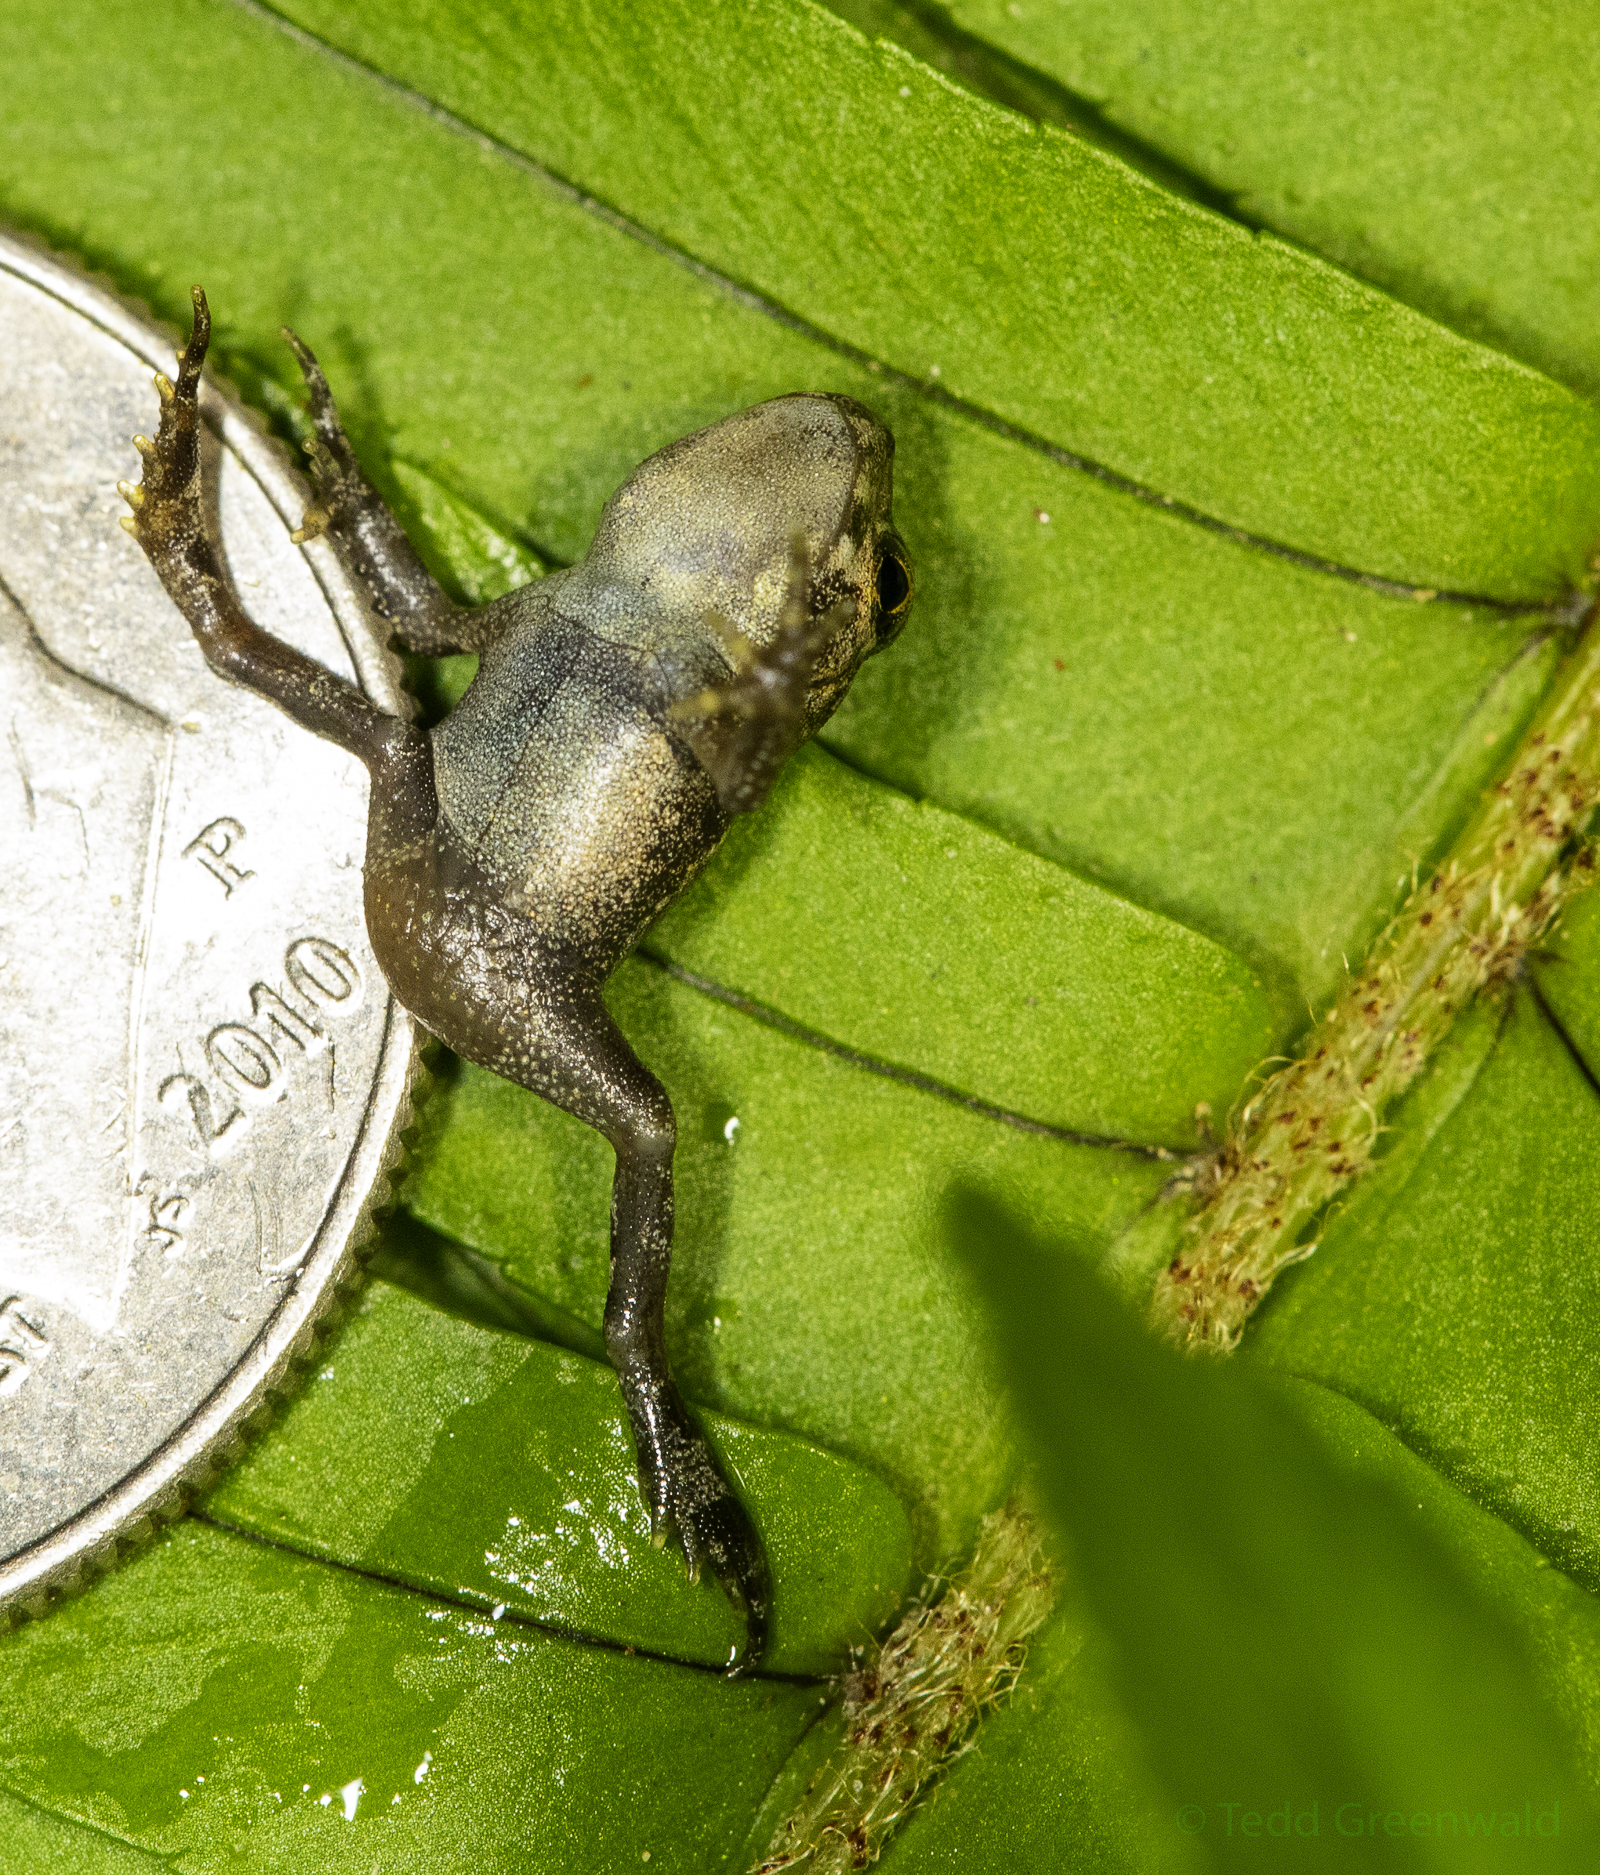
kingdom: Animalia
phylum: Chordata
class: Amphibia
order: Anura
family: Bufonidae
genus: Anaxyrus
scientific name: Anaxyrus terrestris
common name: Southern toad
